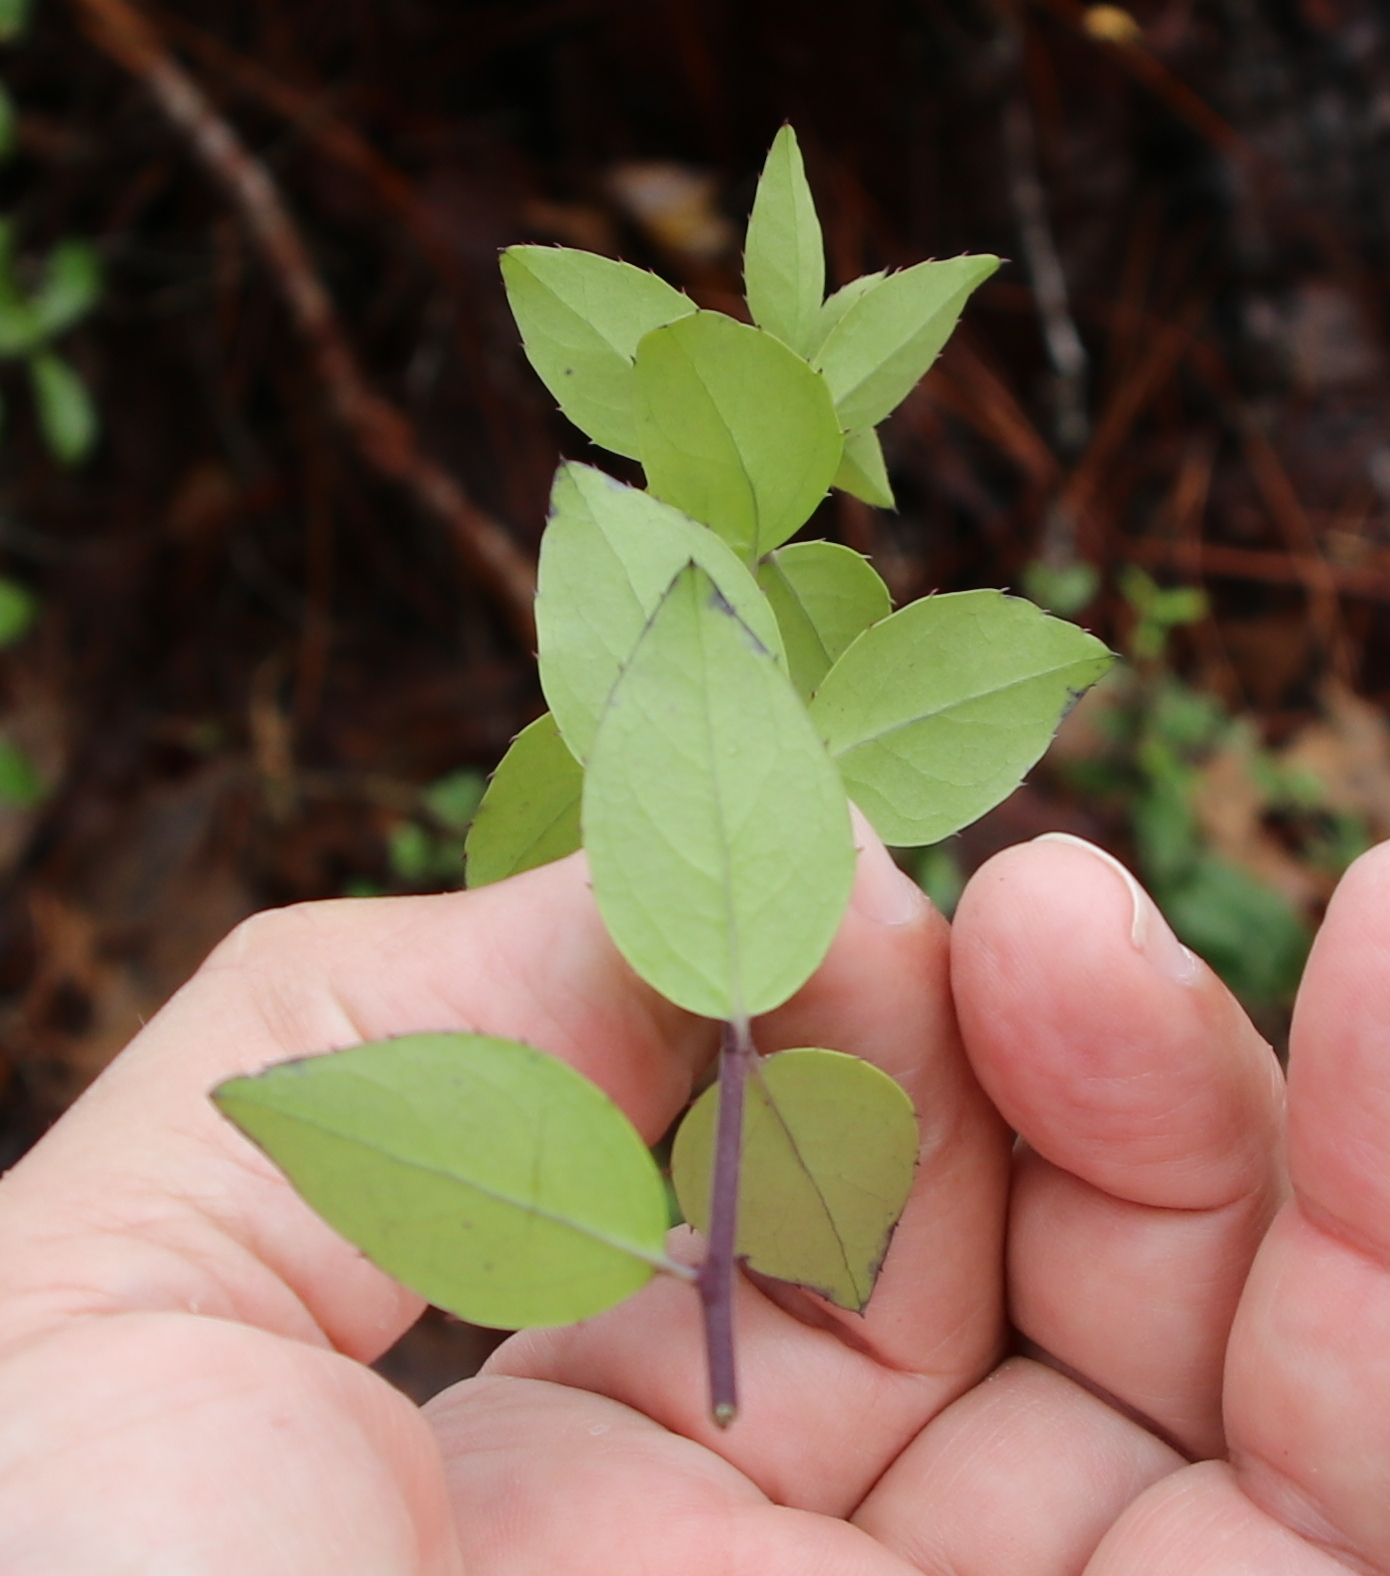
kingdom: Plantae
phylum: Tracheophyta
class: Magnoliopsida
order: Aquifoliales
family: Aquifoliaceae
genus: Ilex
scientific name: Ilex coriacea
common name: Sweet gallberry
